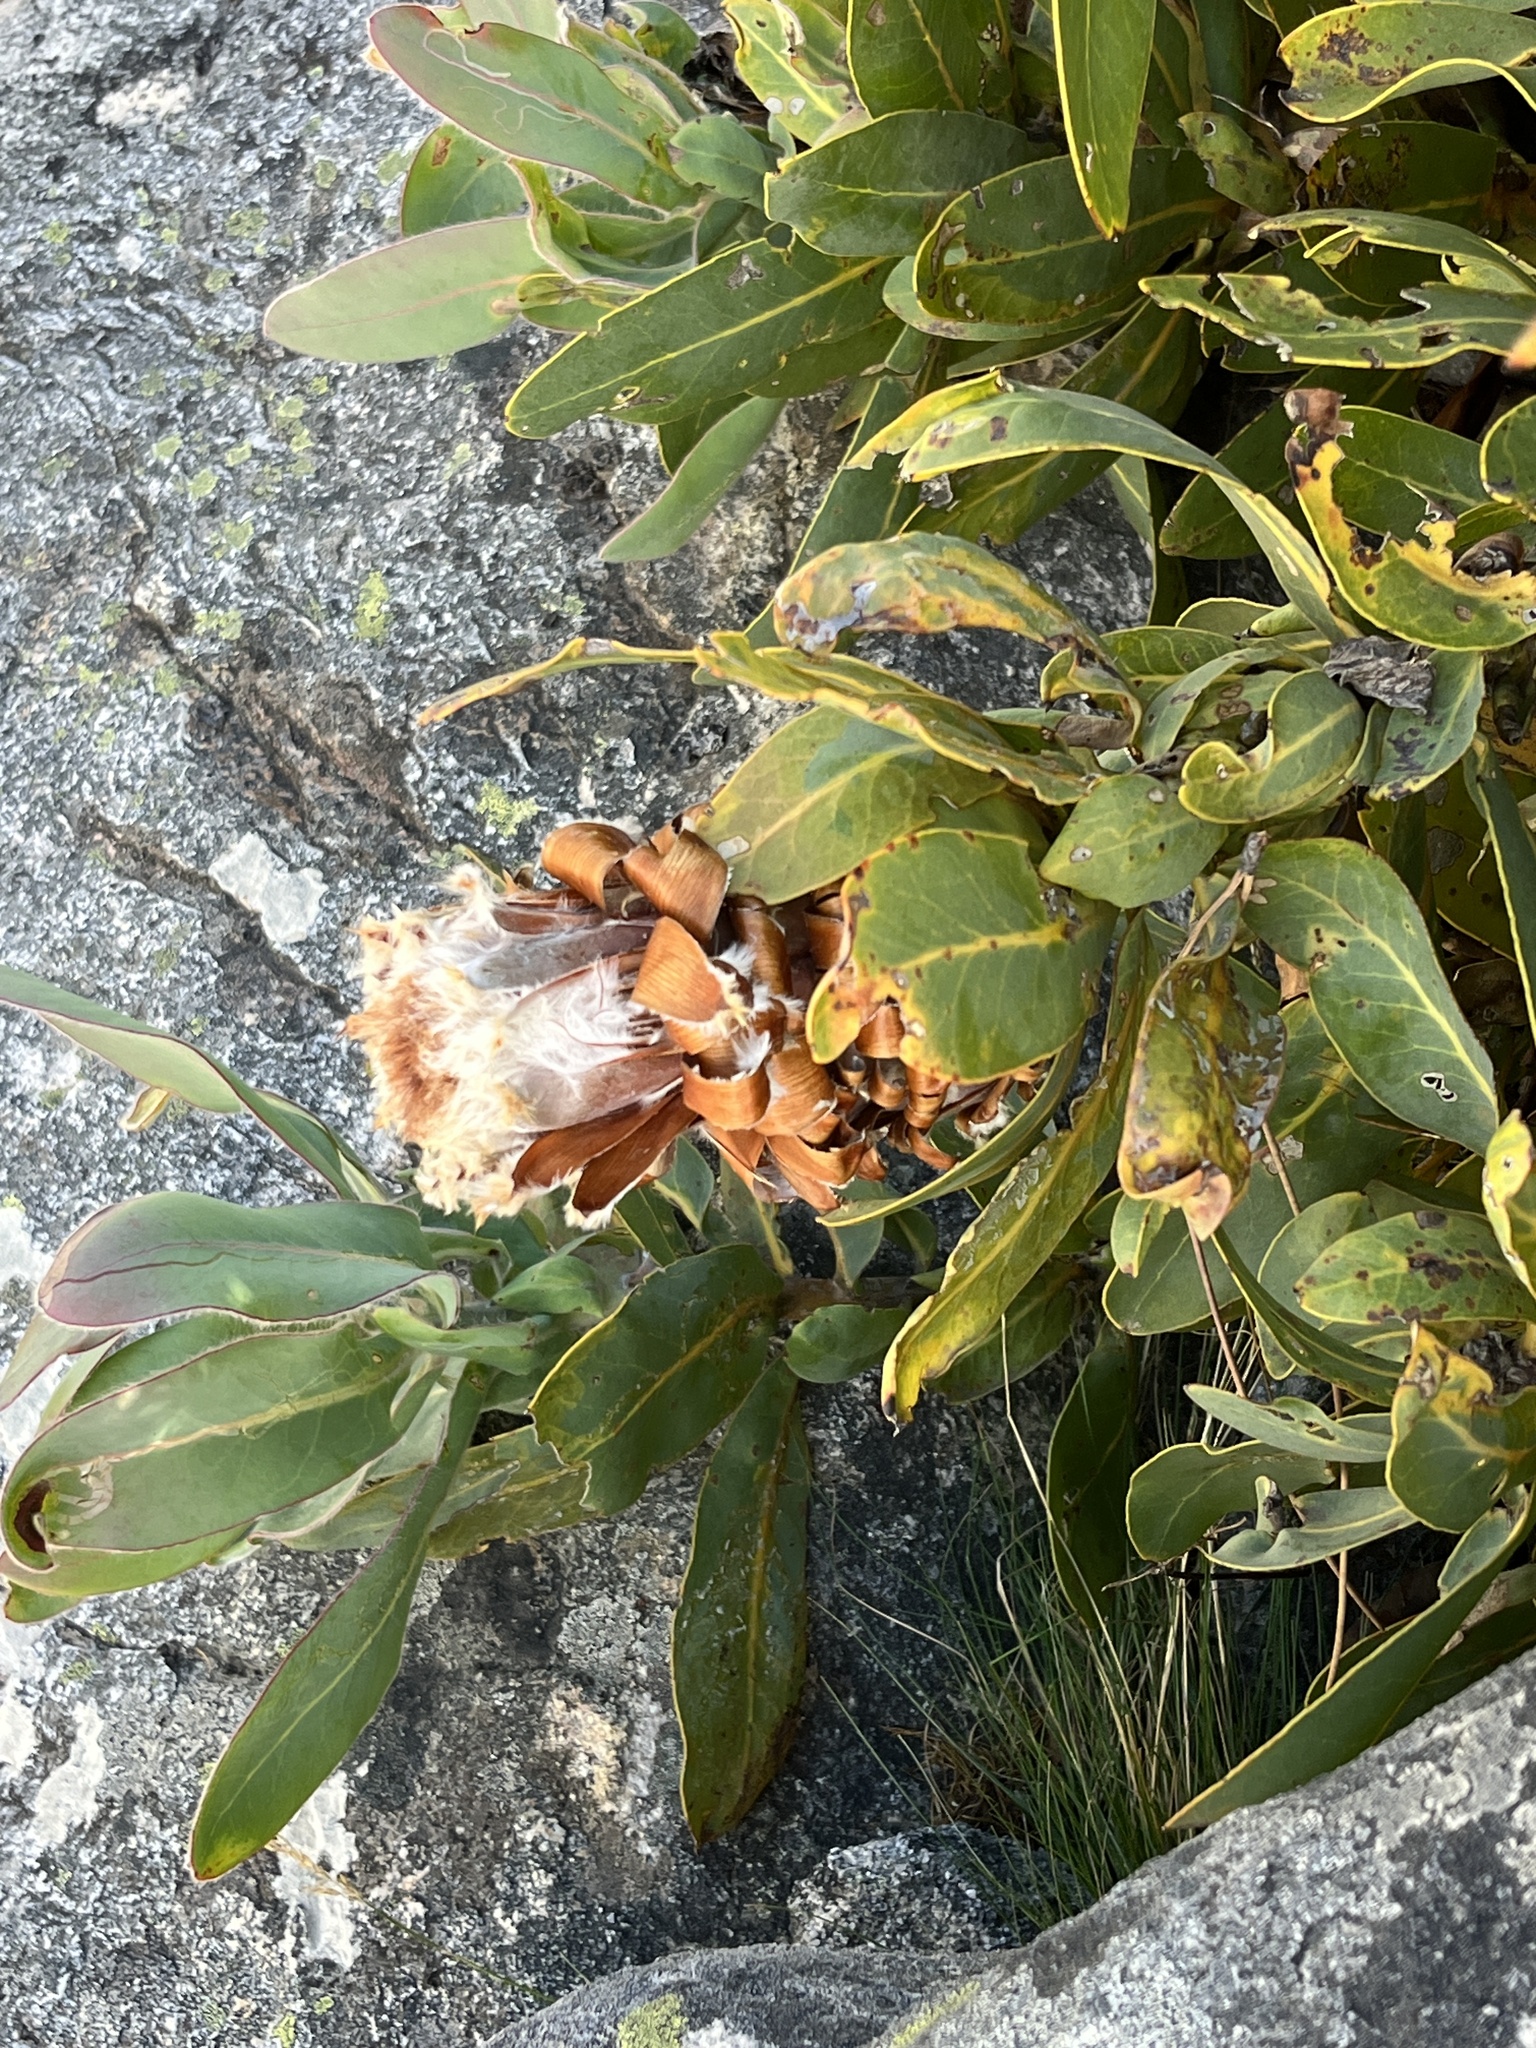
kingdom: Plantae
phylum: Tracheophyta
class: Magnoliopsida
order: Proteales
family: Proteaceae
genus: Protea
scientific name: Protea magnifica
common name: Bearded sugarbush
